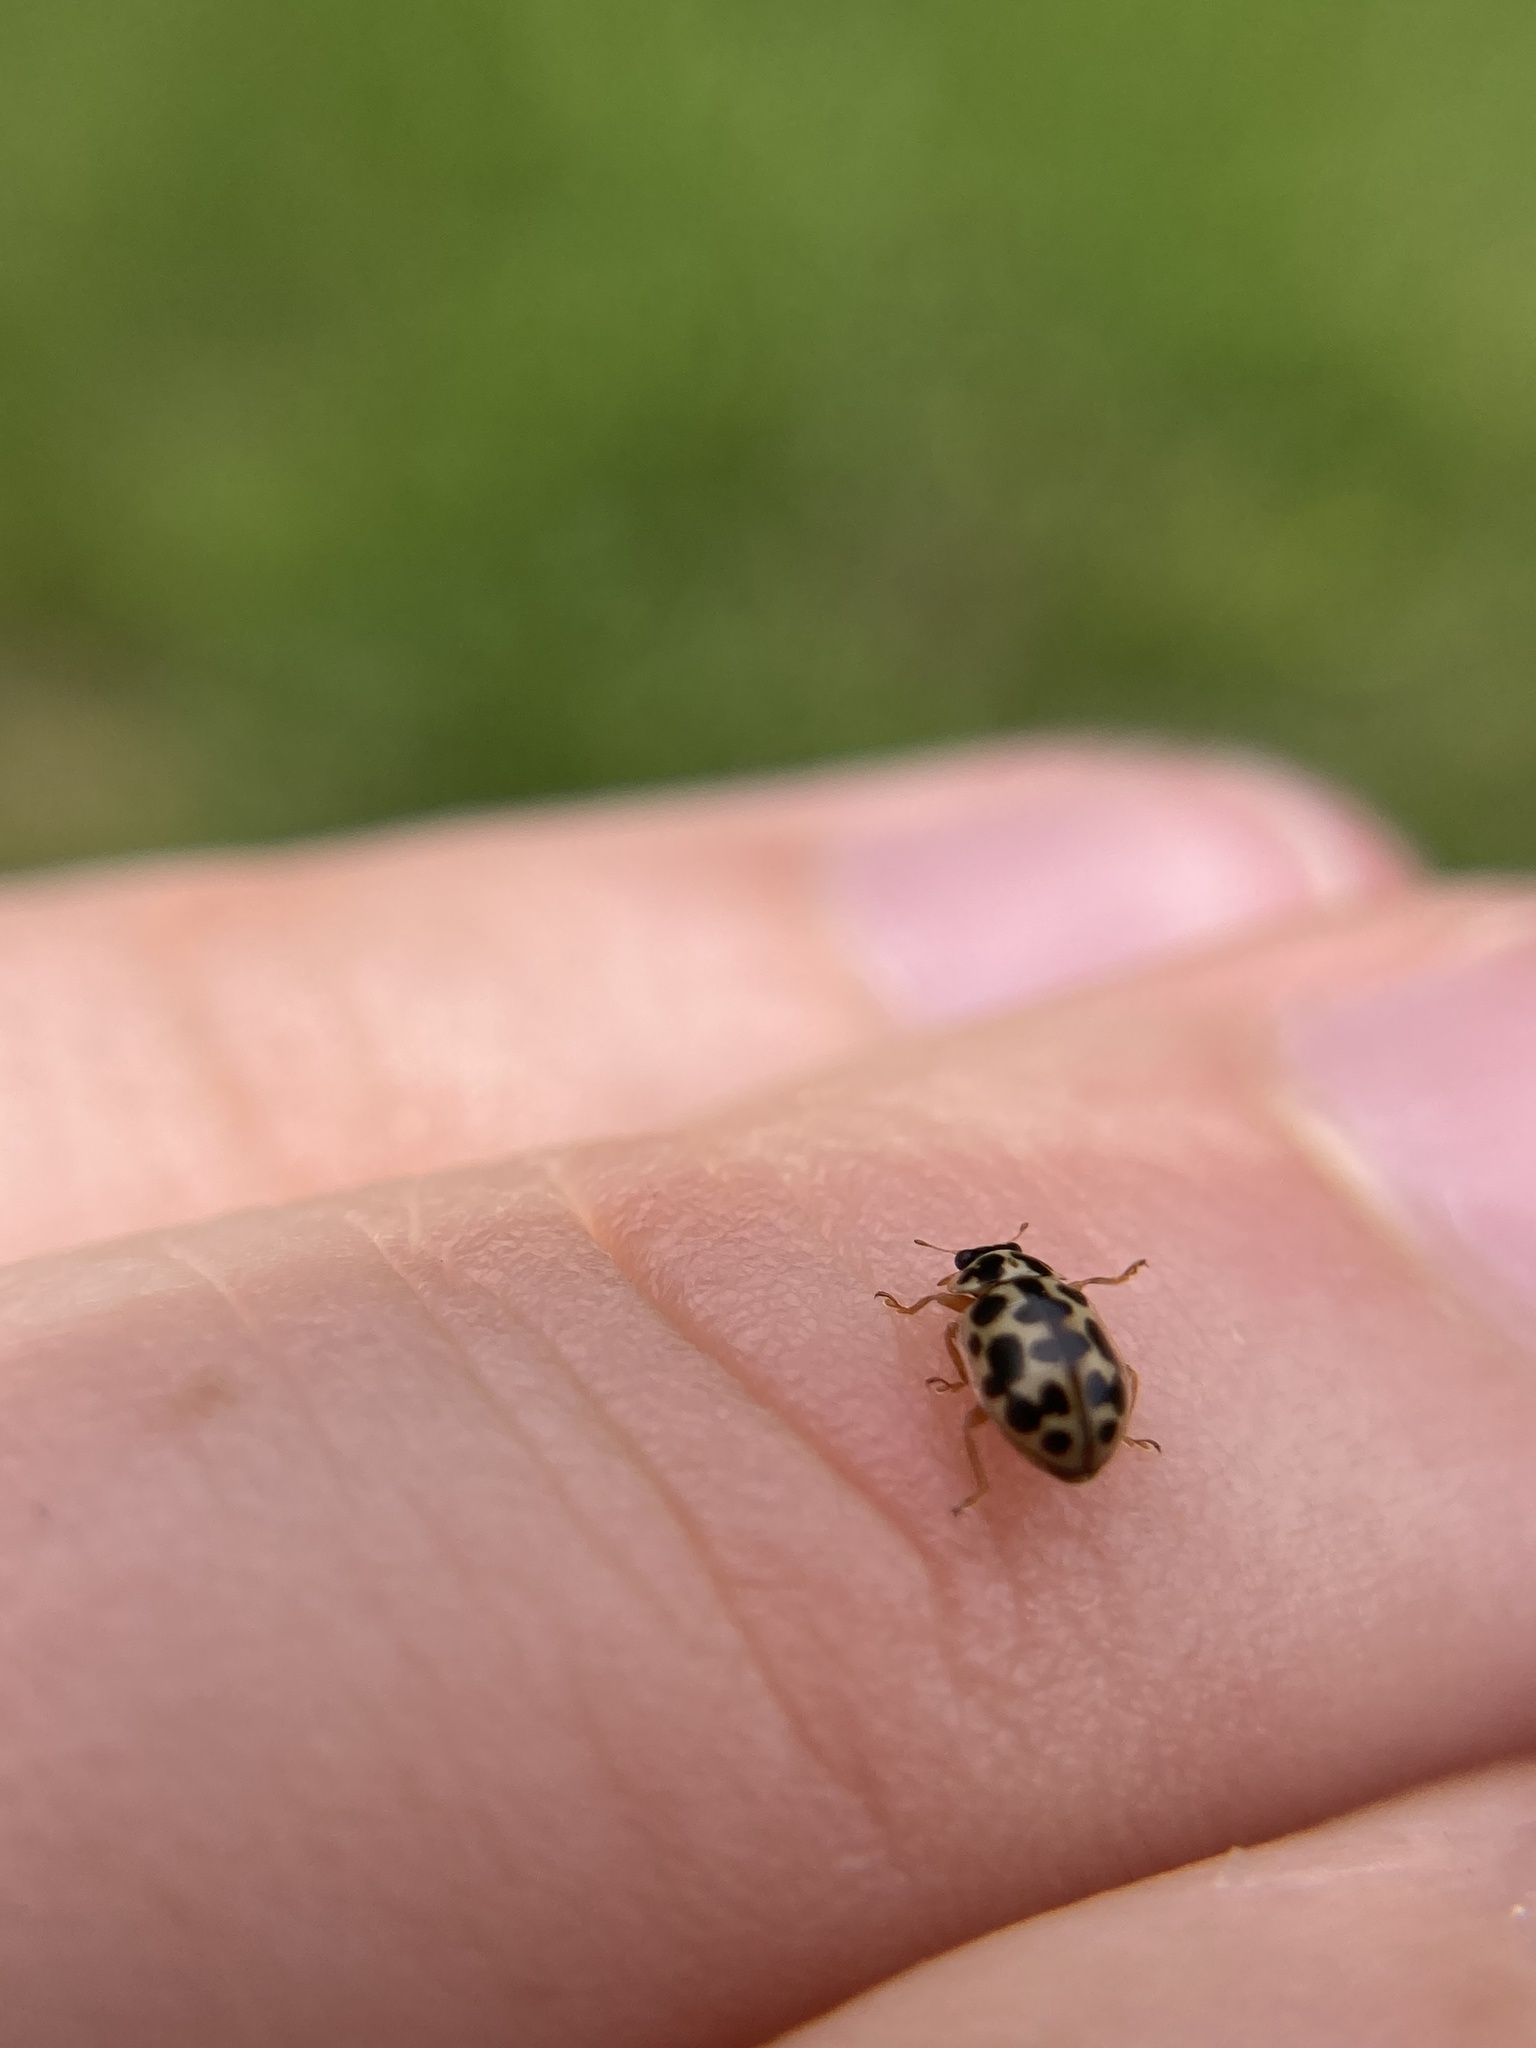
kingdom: Animalia
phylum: Arthropoda
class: Insecta
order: Coleoptera
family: Coccinellidae
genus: Anisosticta
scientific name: Anisosticta bitriangularis
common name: Marsh lady beetle
